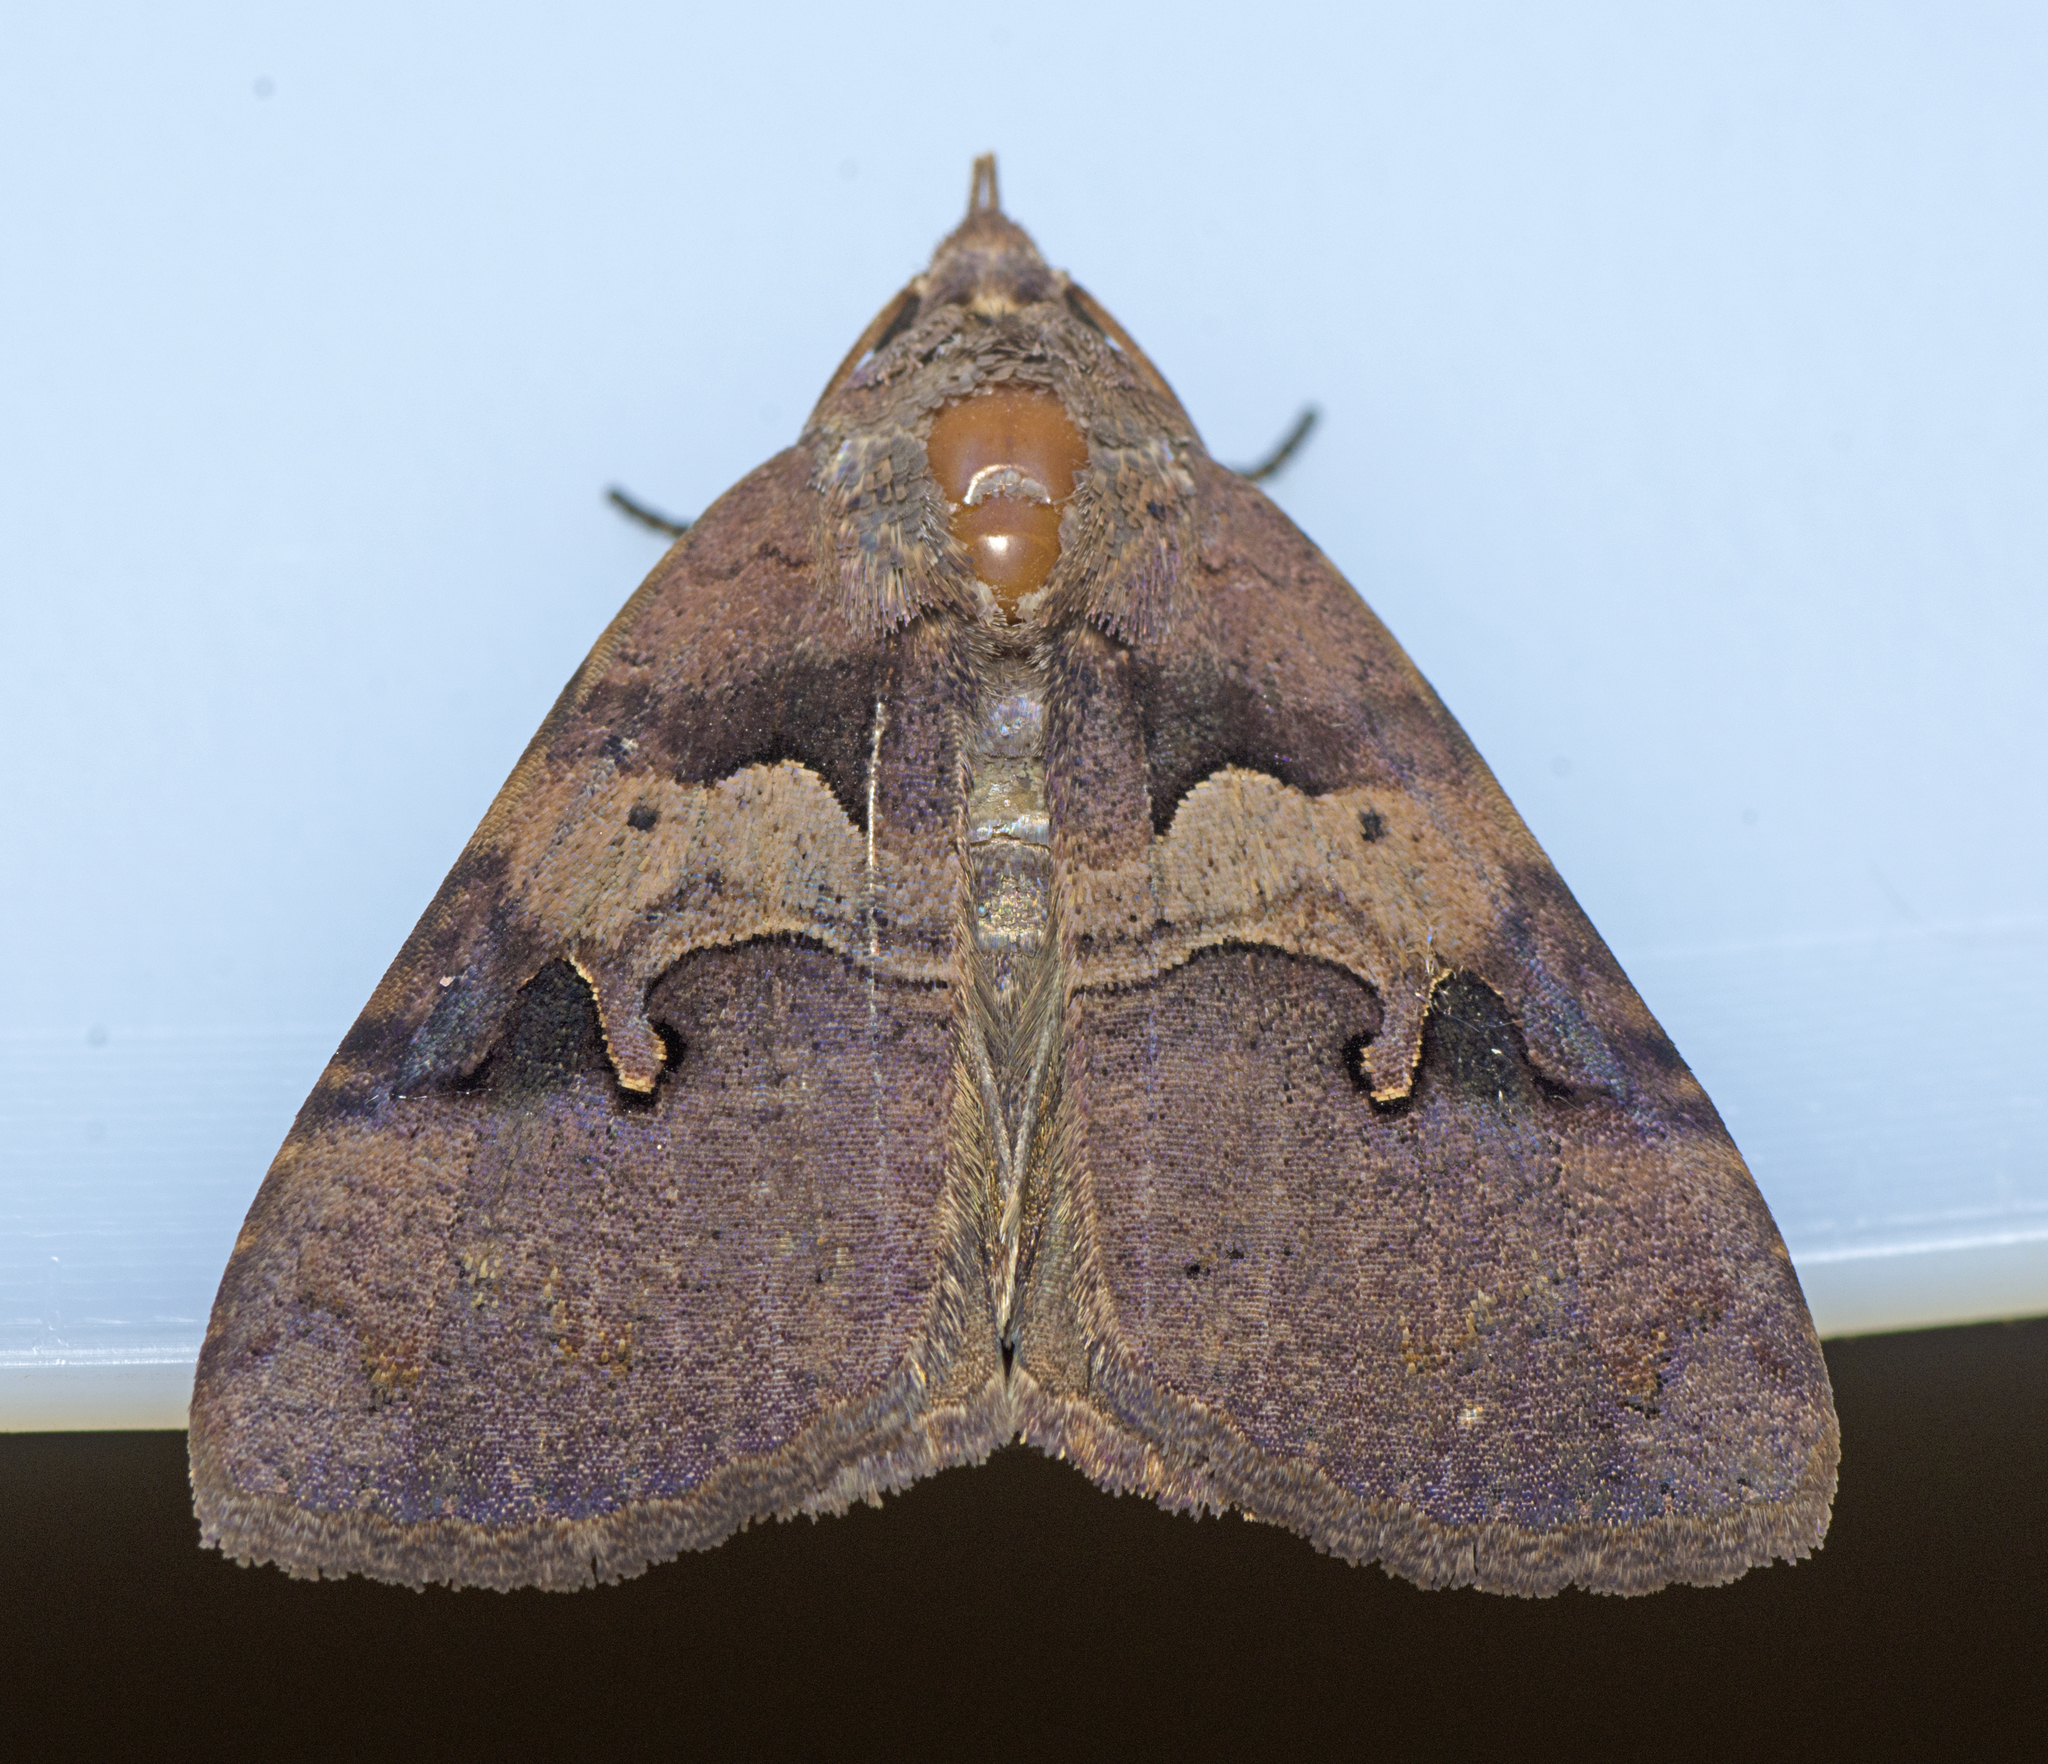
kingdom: Animalia
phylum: Arthropoda
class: Insecta
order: Lepidoptera
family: Erebidae
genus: Avatha
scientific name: Avatha discolor
